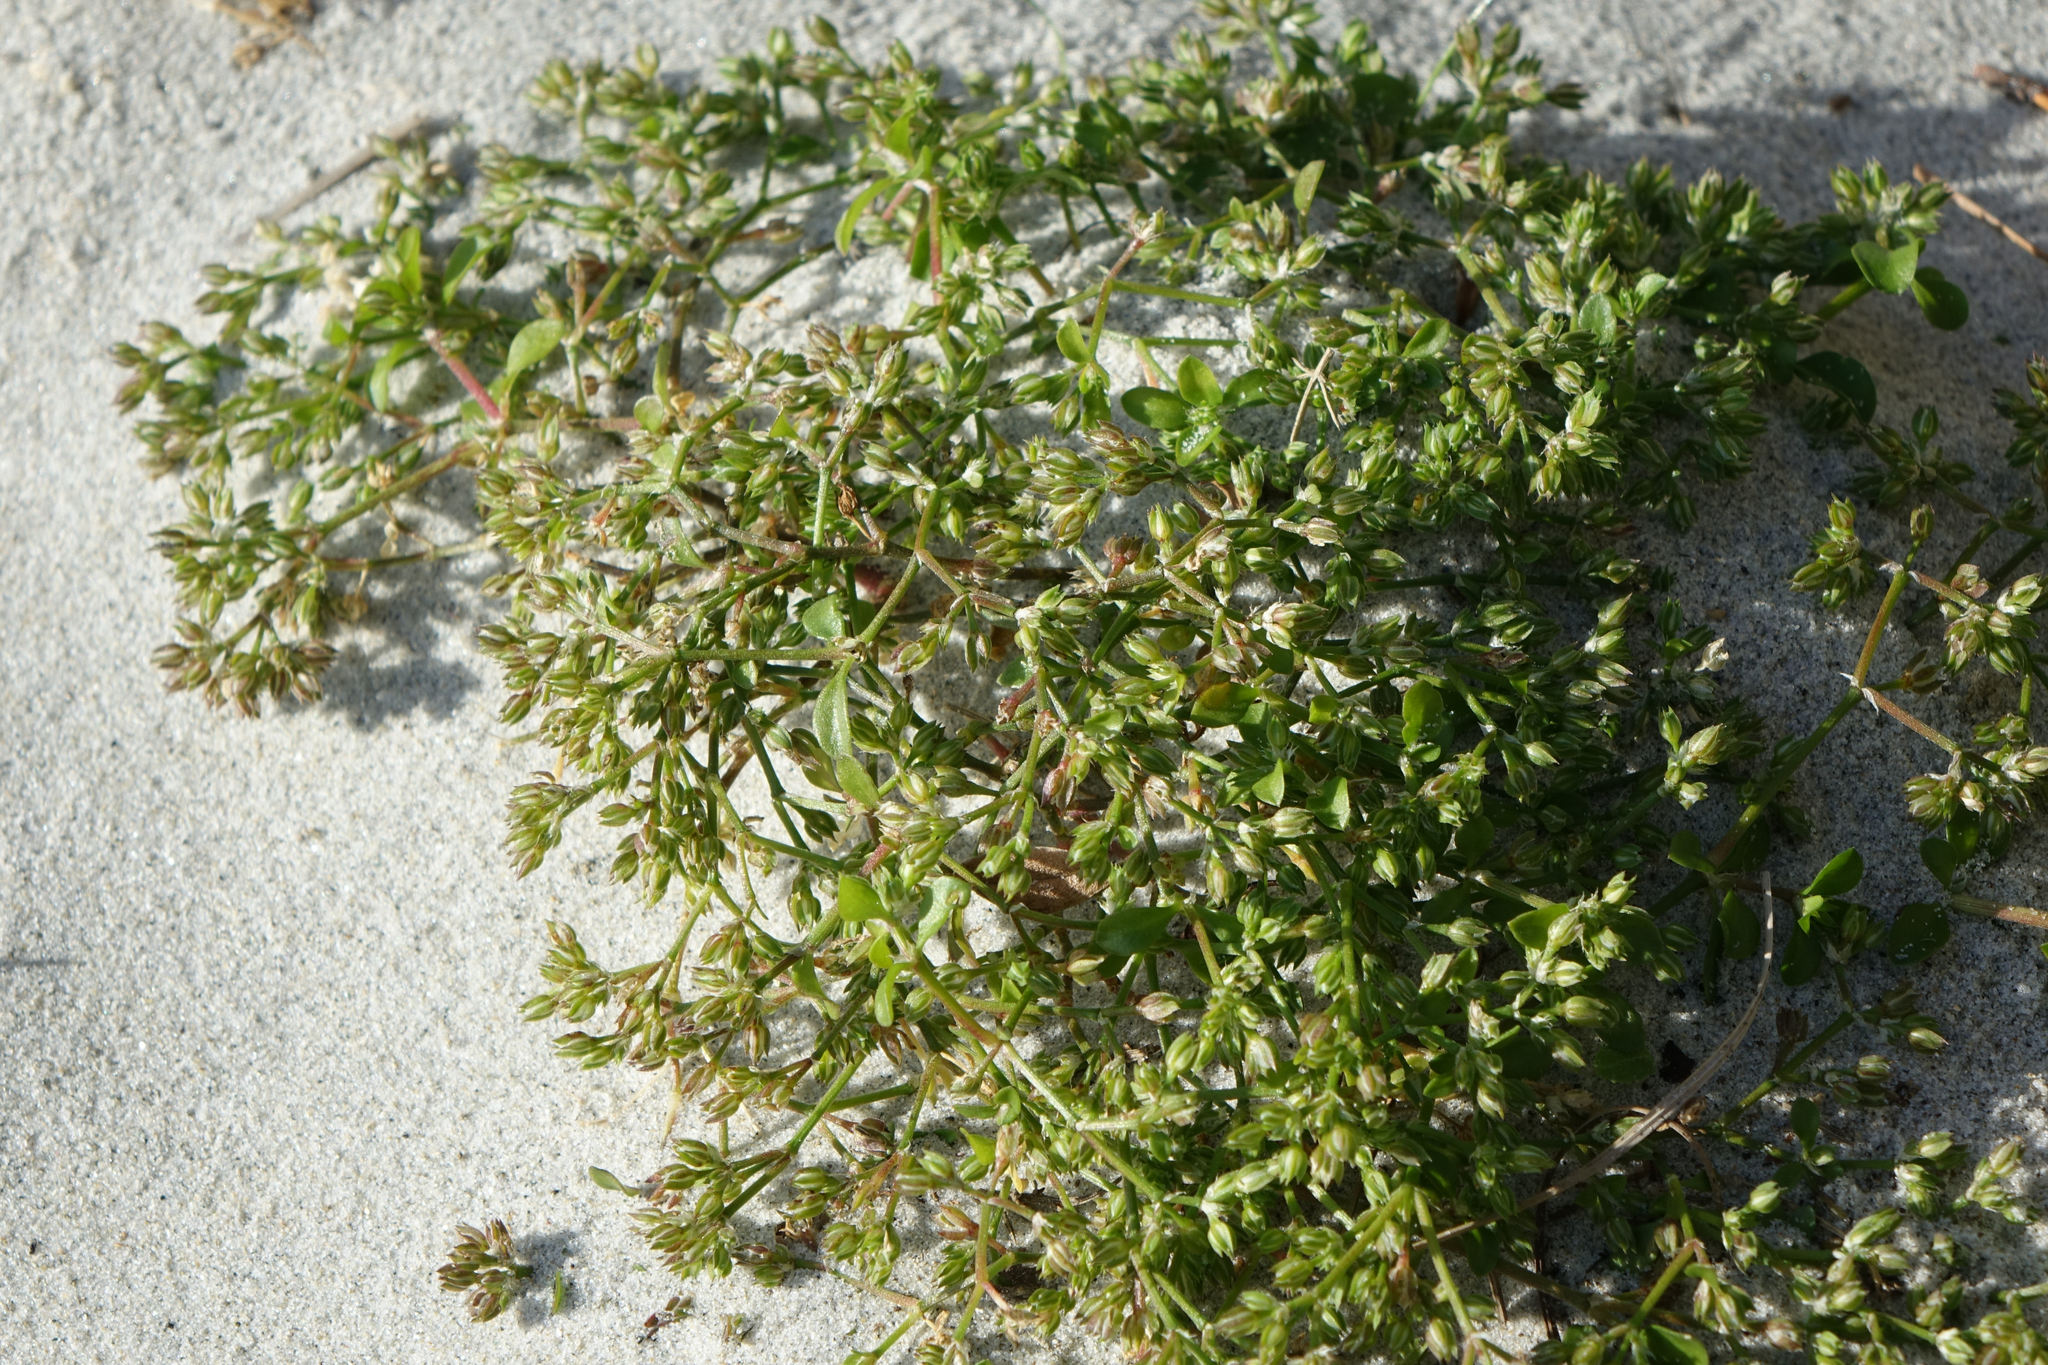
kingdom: Plantae
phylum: Tracheophyta
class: Magnoliopsida
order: Caryophyllales
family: Caryophyllaceae
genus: Polycarpon
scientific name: Polycarpon tetraphyllum
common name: Four-leaved all-seed
